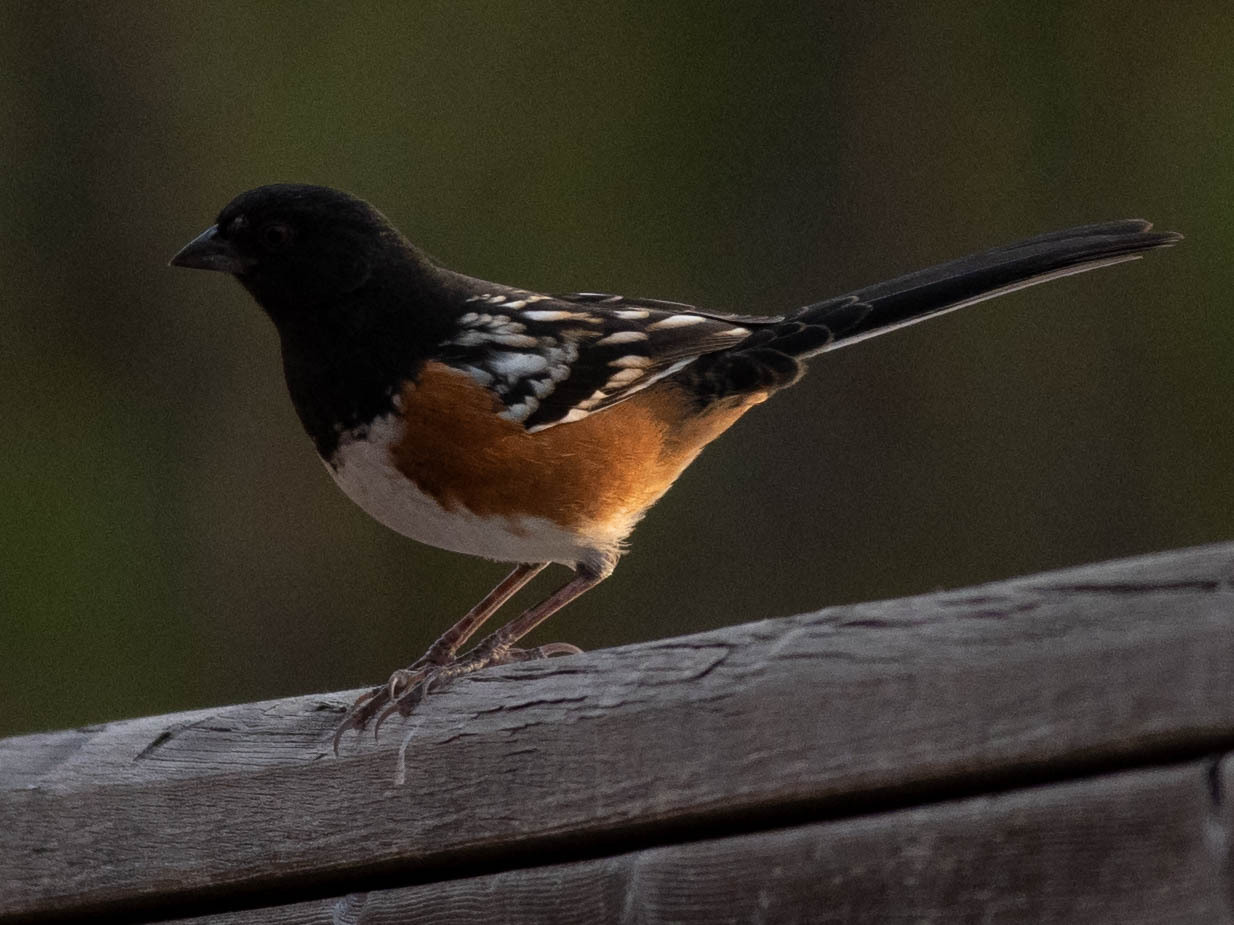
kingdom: Animalia
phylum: Chordata
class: Aves
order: Passeriformes
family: Passerellidae
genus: Pipilo
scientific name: Pipilo maculatus
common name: Spotted towhee
